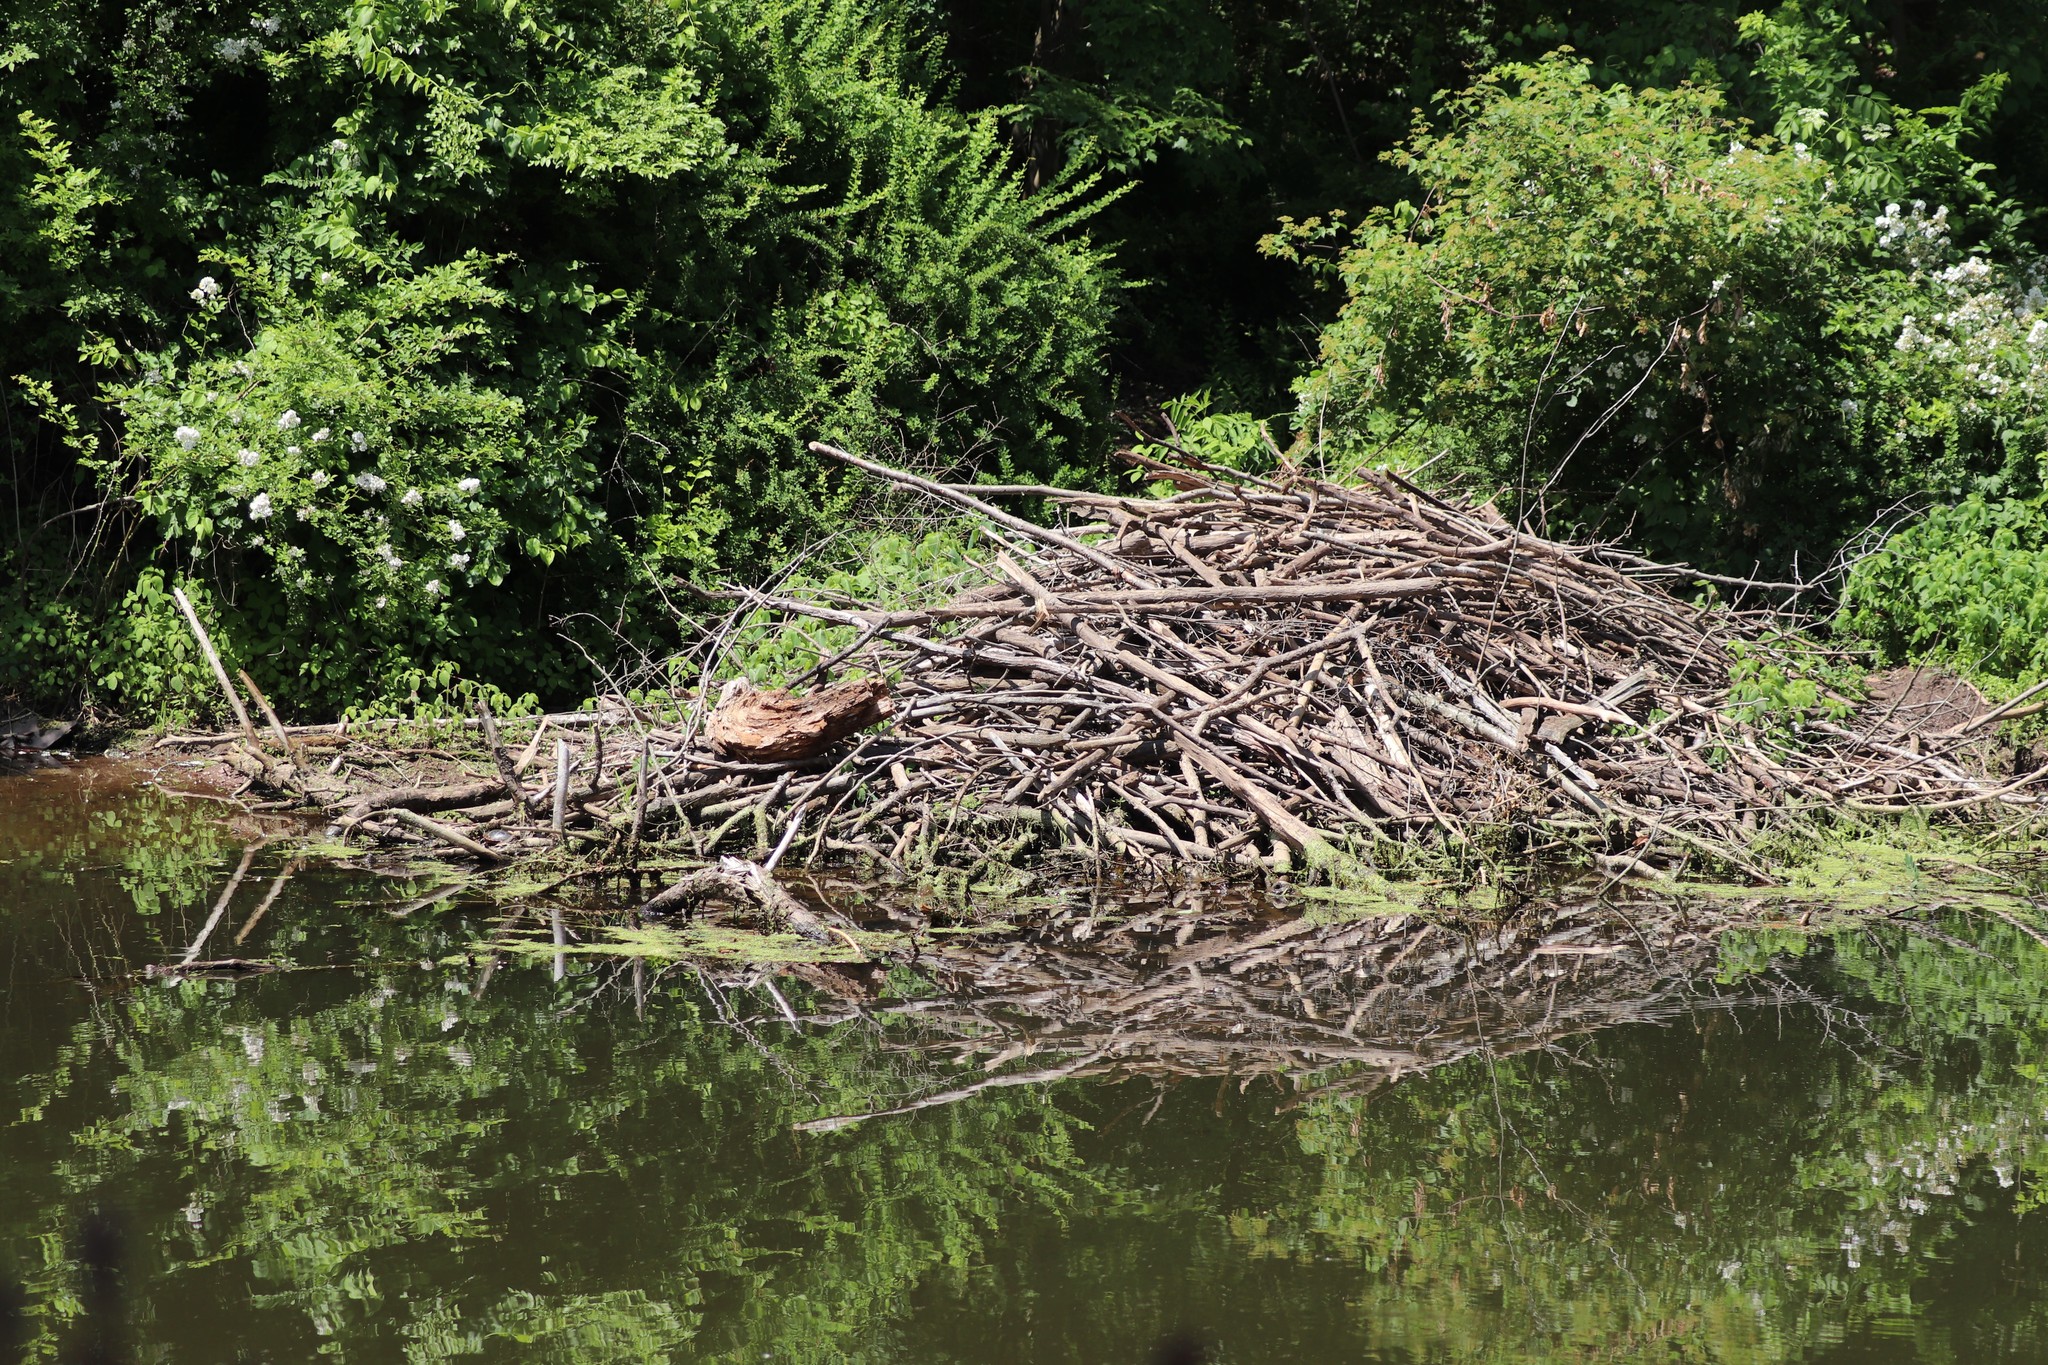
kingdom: Animalia
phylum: Chordata
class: Mammalia
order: Rodentia
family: Castoridae
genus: Castor
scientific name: Castor canadensis
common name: American beaver
